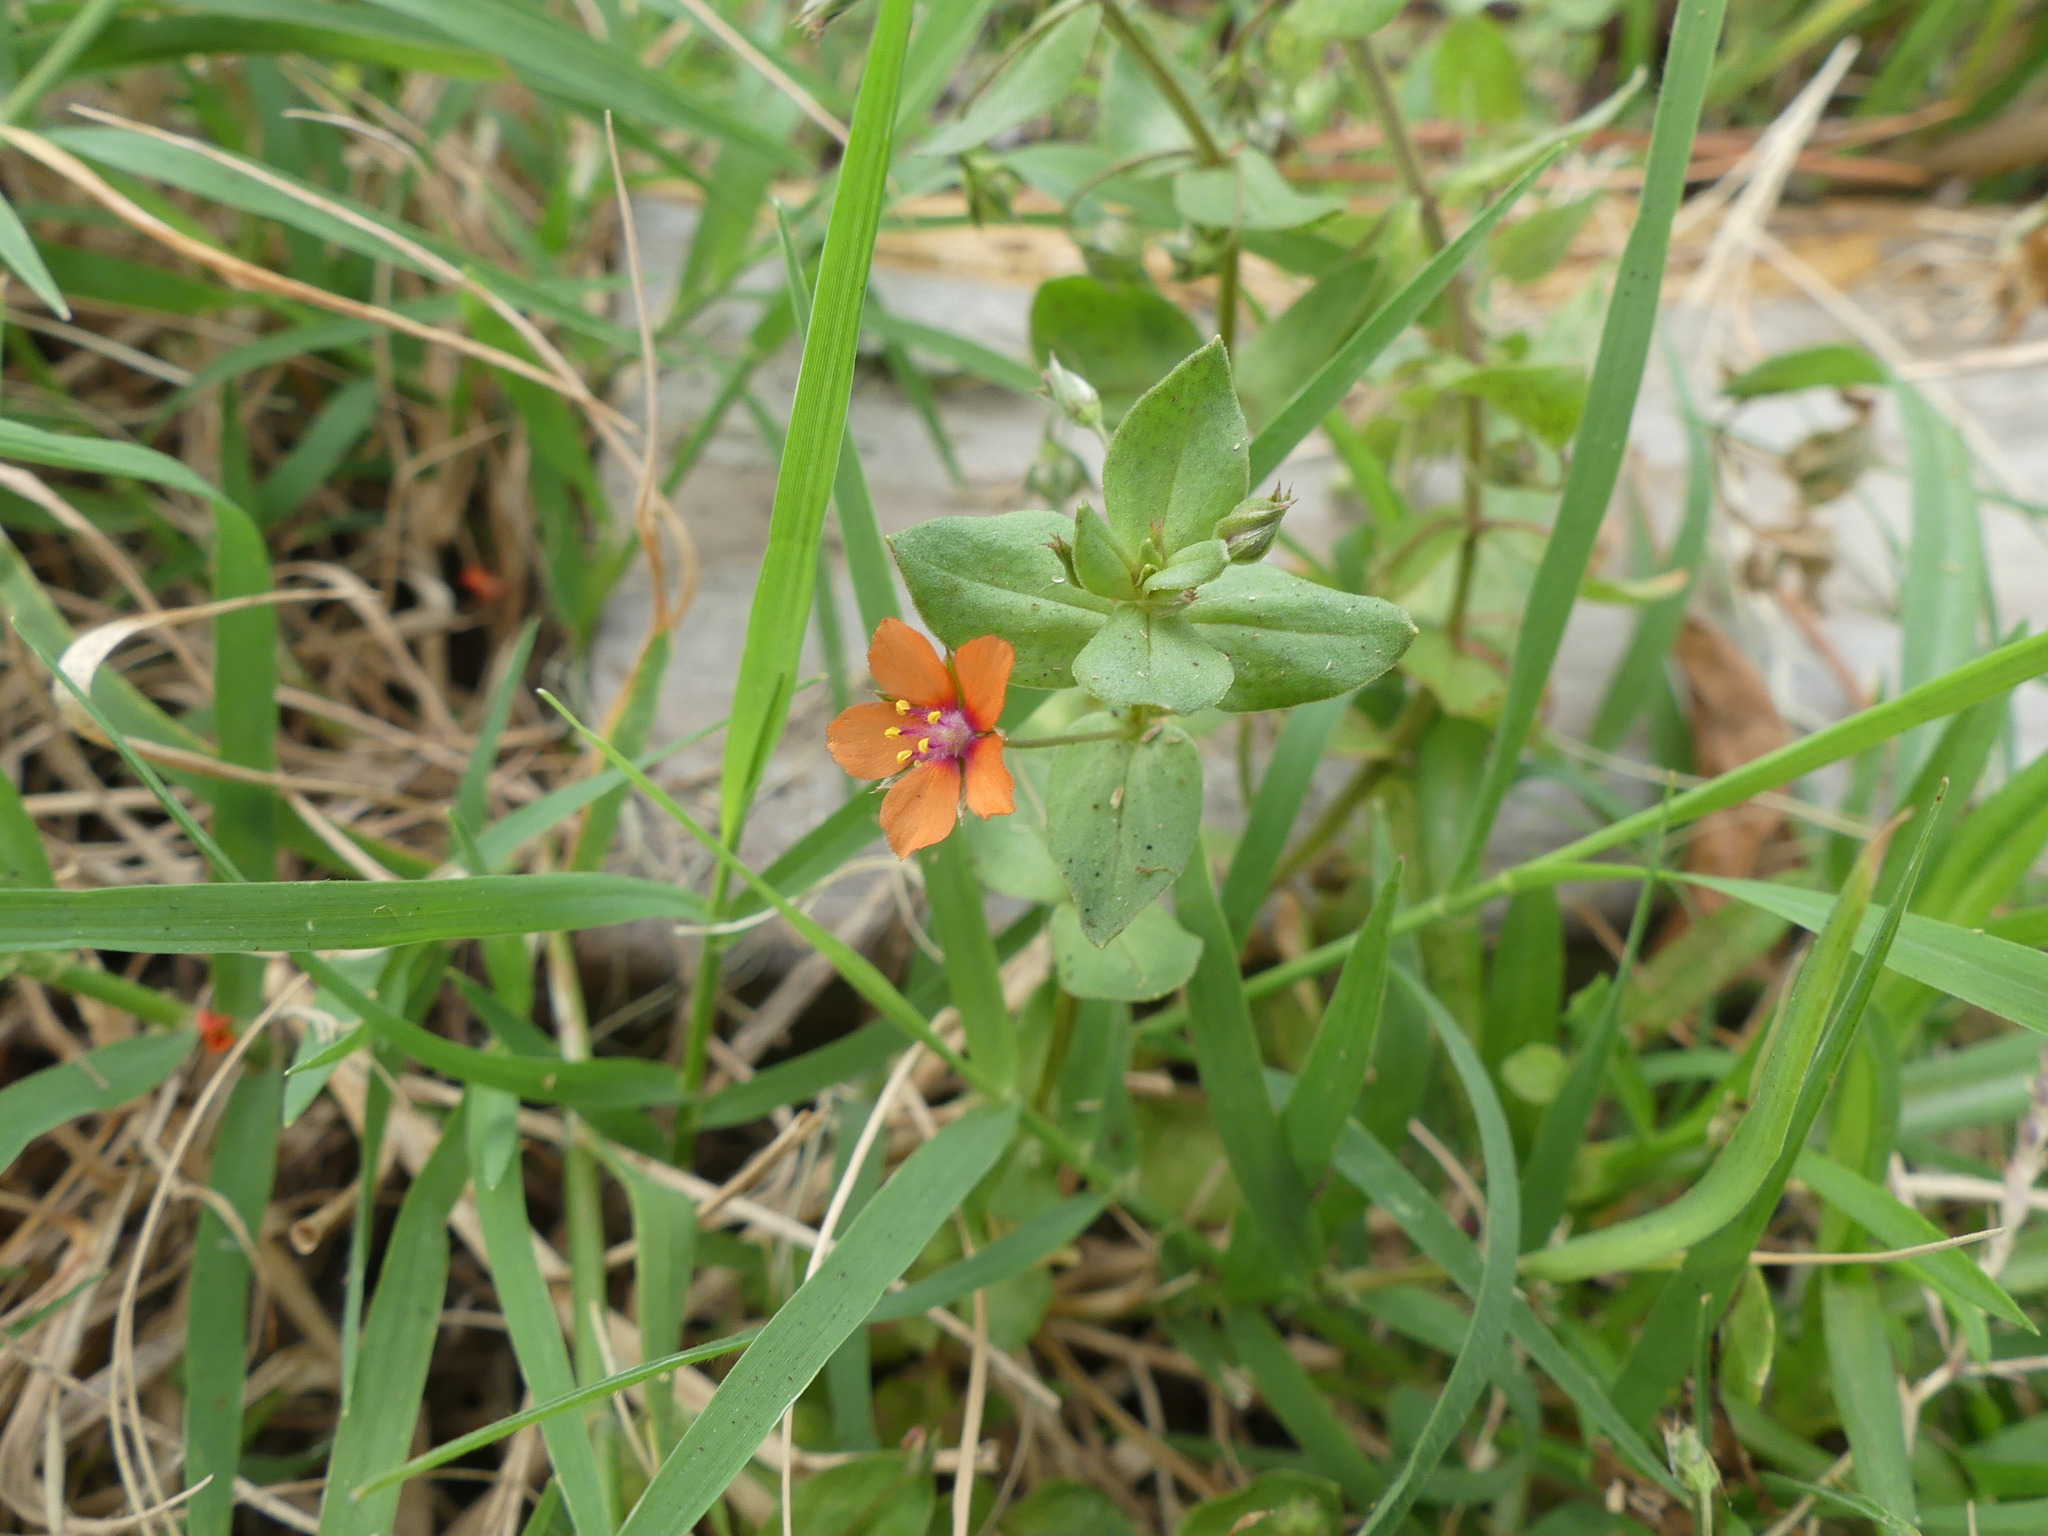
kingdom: Plantae
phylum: Tracheophyta
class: Magnoliopsida
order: Ericales
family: Primulaceae
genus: Lysimachia
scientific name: Lysimachia arvensis
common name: Scarlet pimpernel
